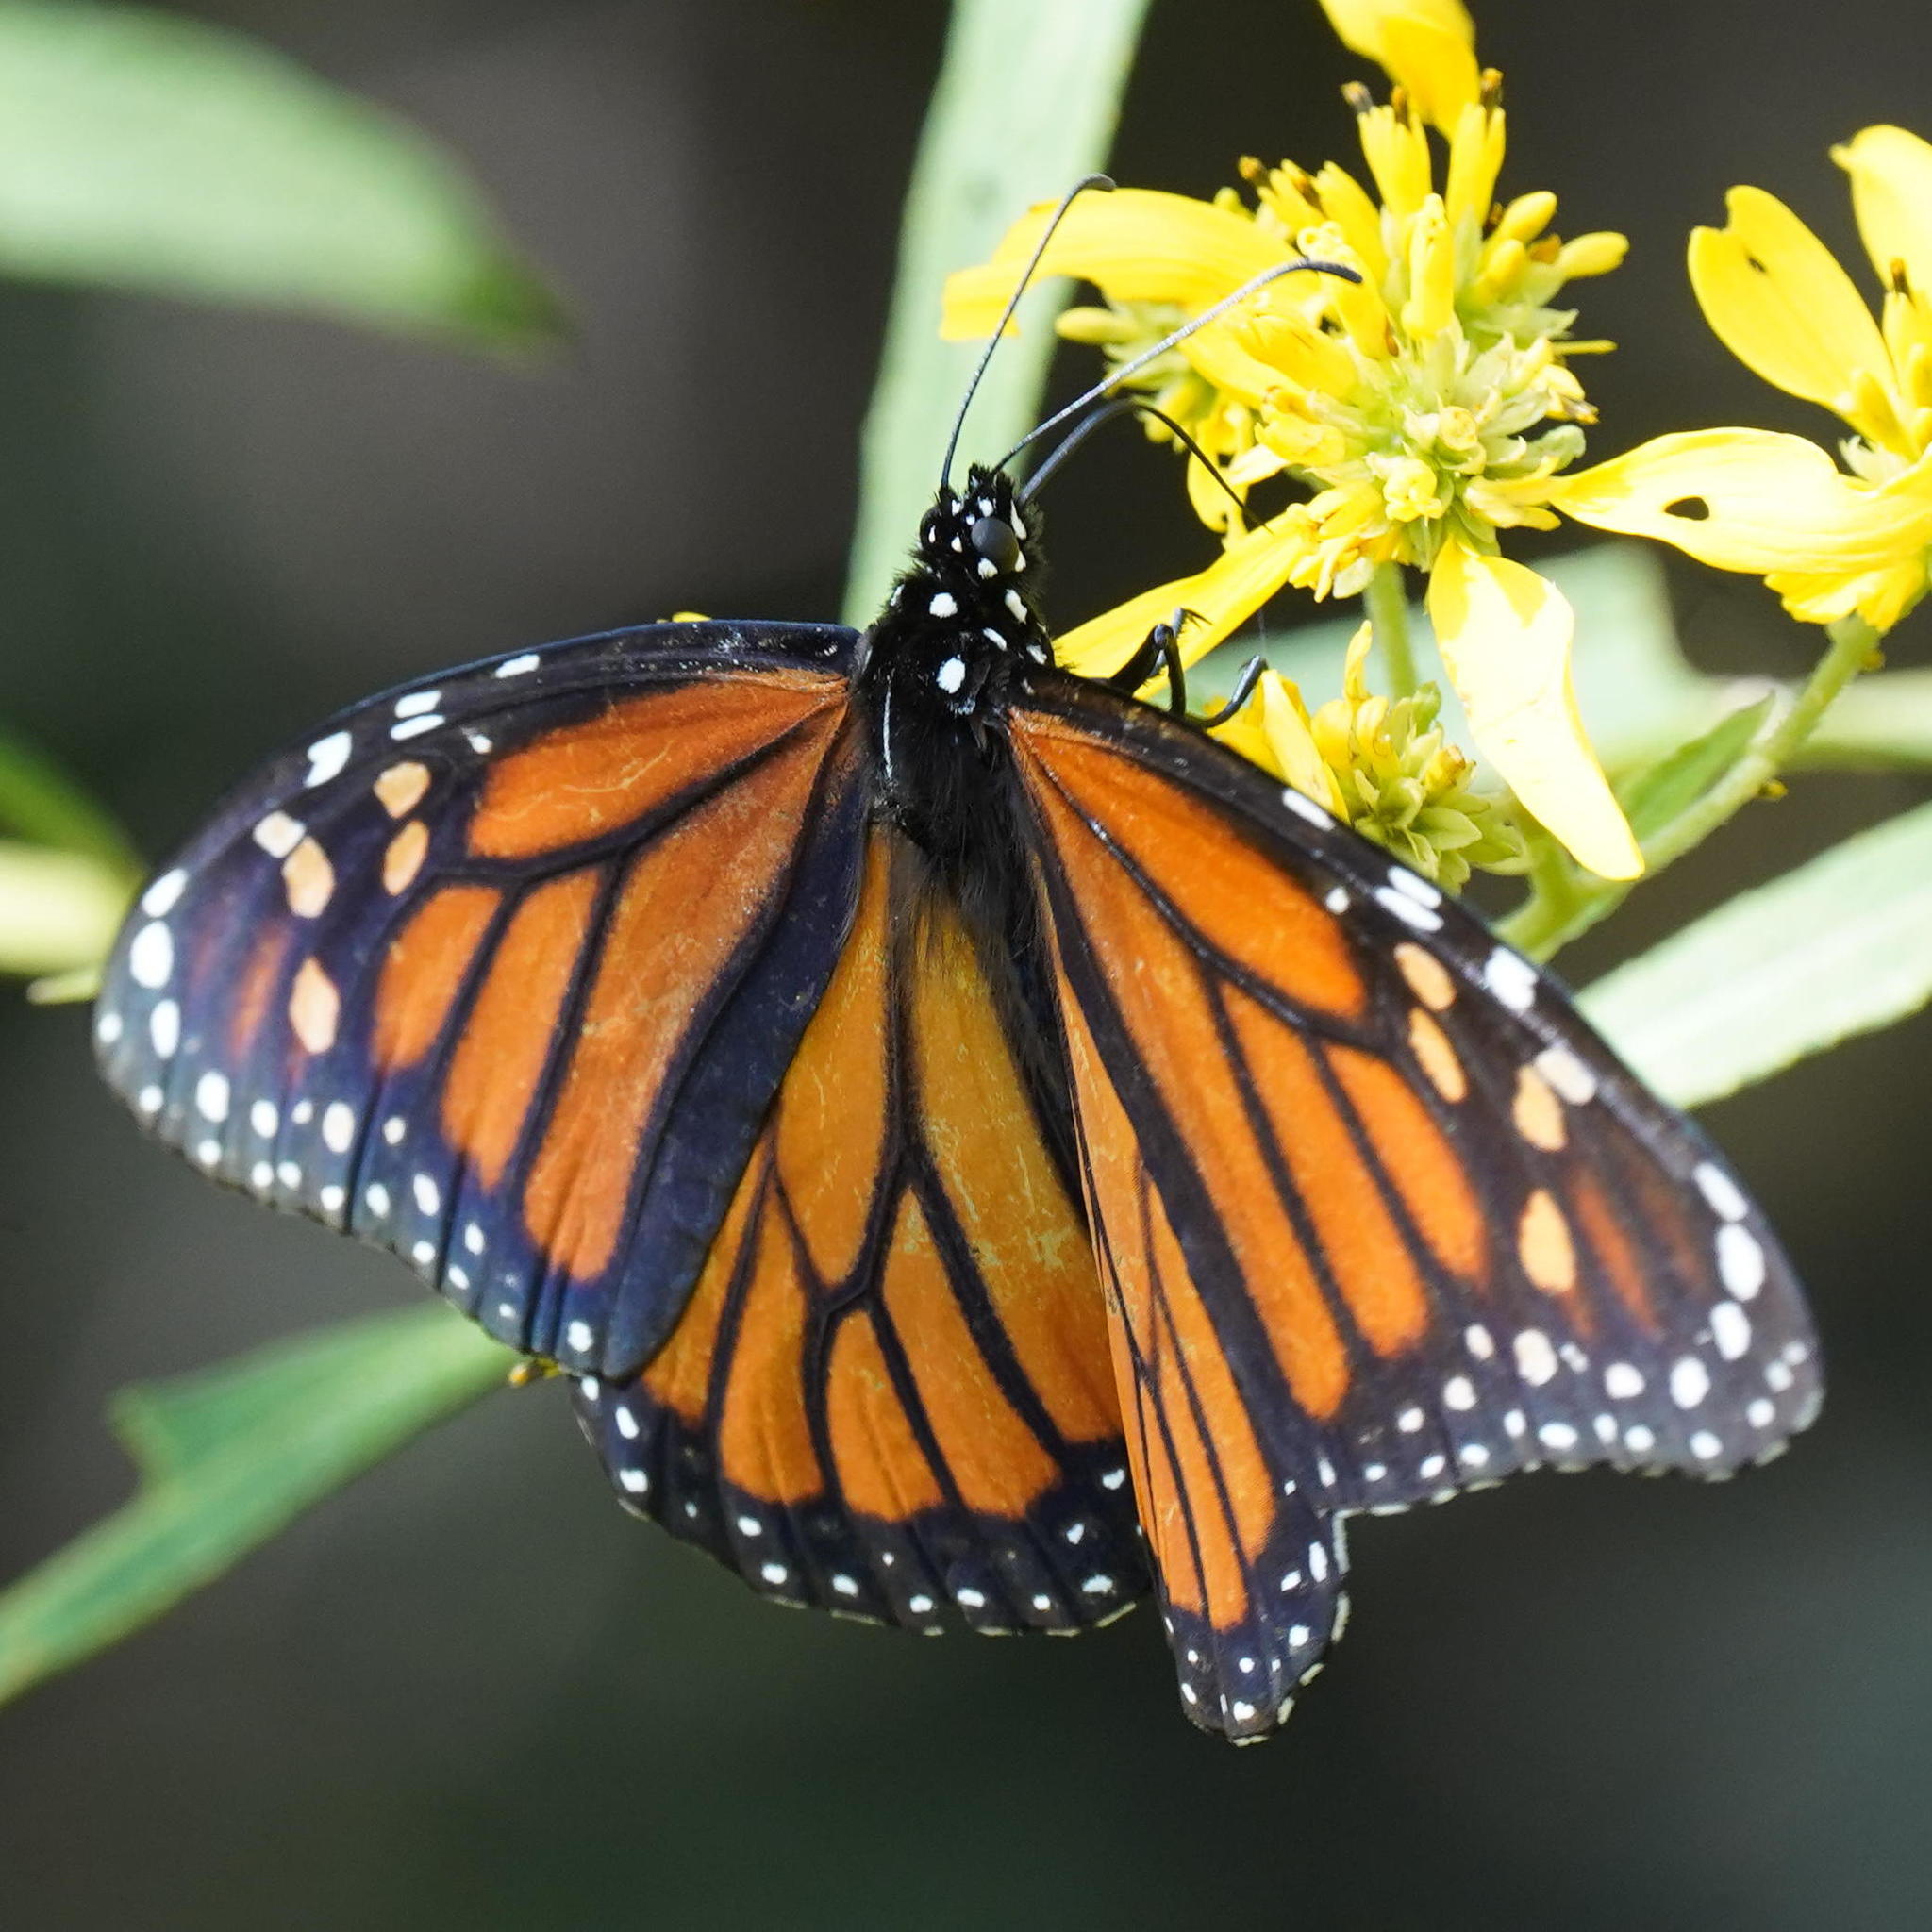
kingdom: Animalia
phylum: Arthropoda
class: Insecta
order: Lepidoptera
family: Nymphalidae
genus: Danaus
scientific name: Danaus plexippus
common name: Monarch
